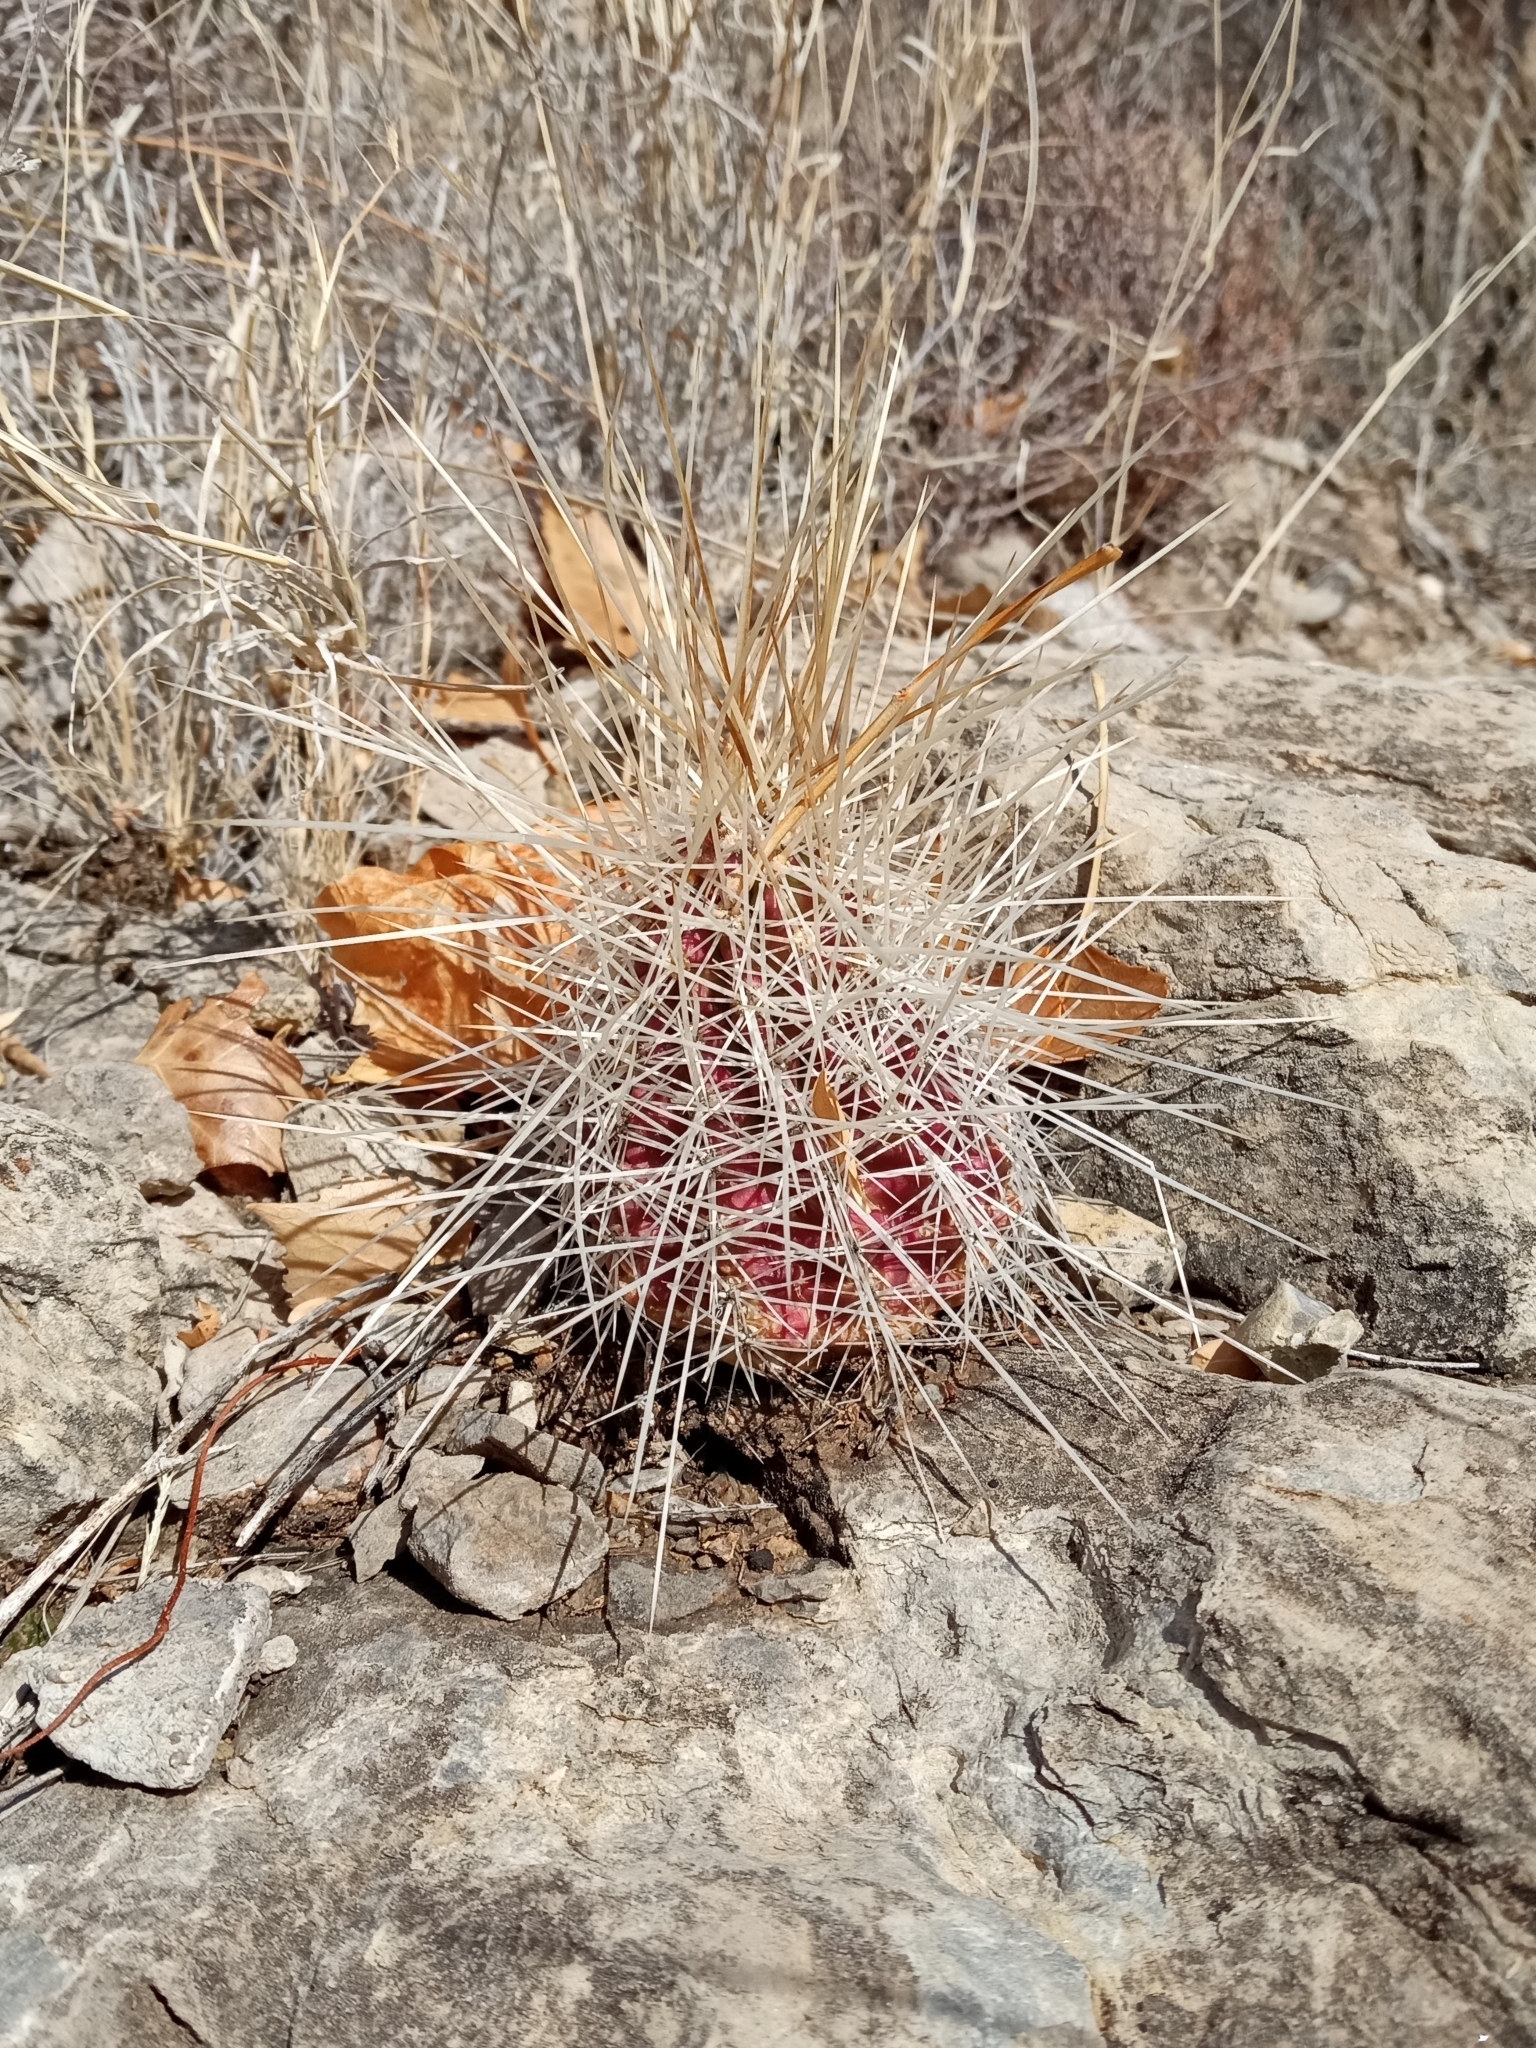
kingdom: Plantae
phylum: Tracheophyta
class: Magnoliopsida
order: Caryophyllales
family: Cactaceae
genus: Echinocereus
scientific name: Echinocereus stramineus
